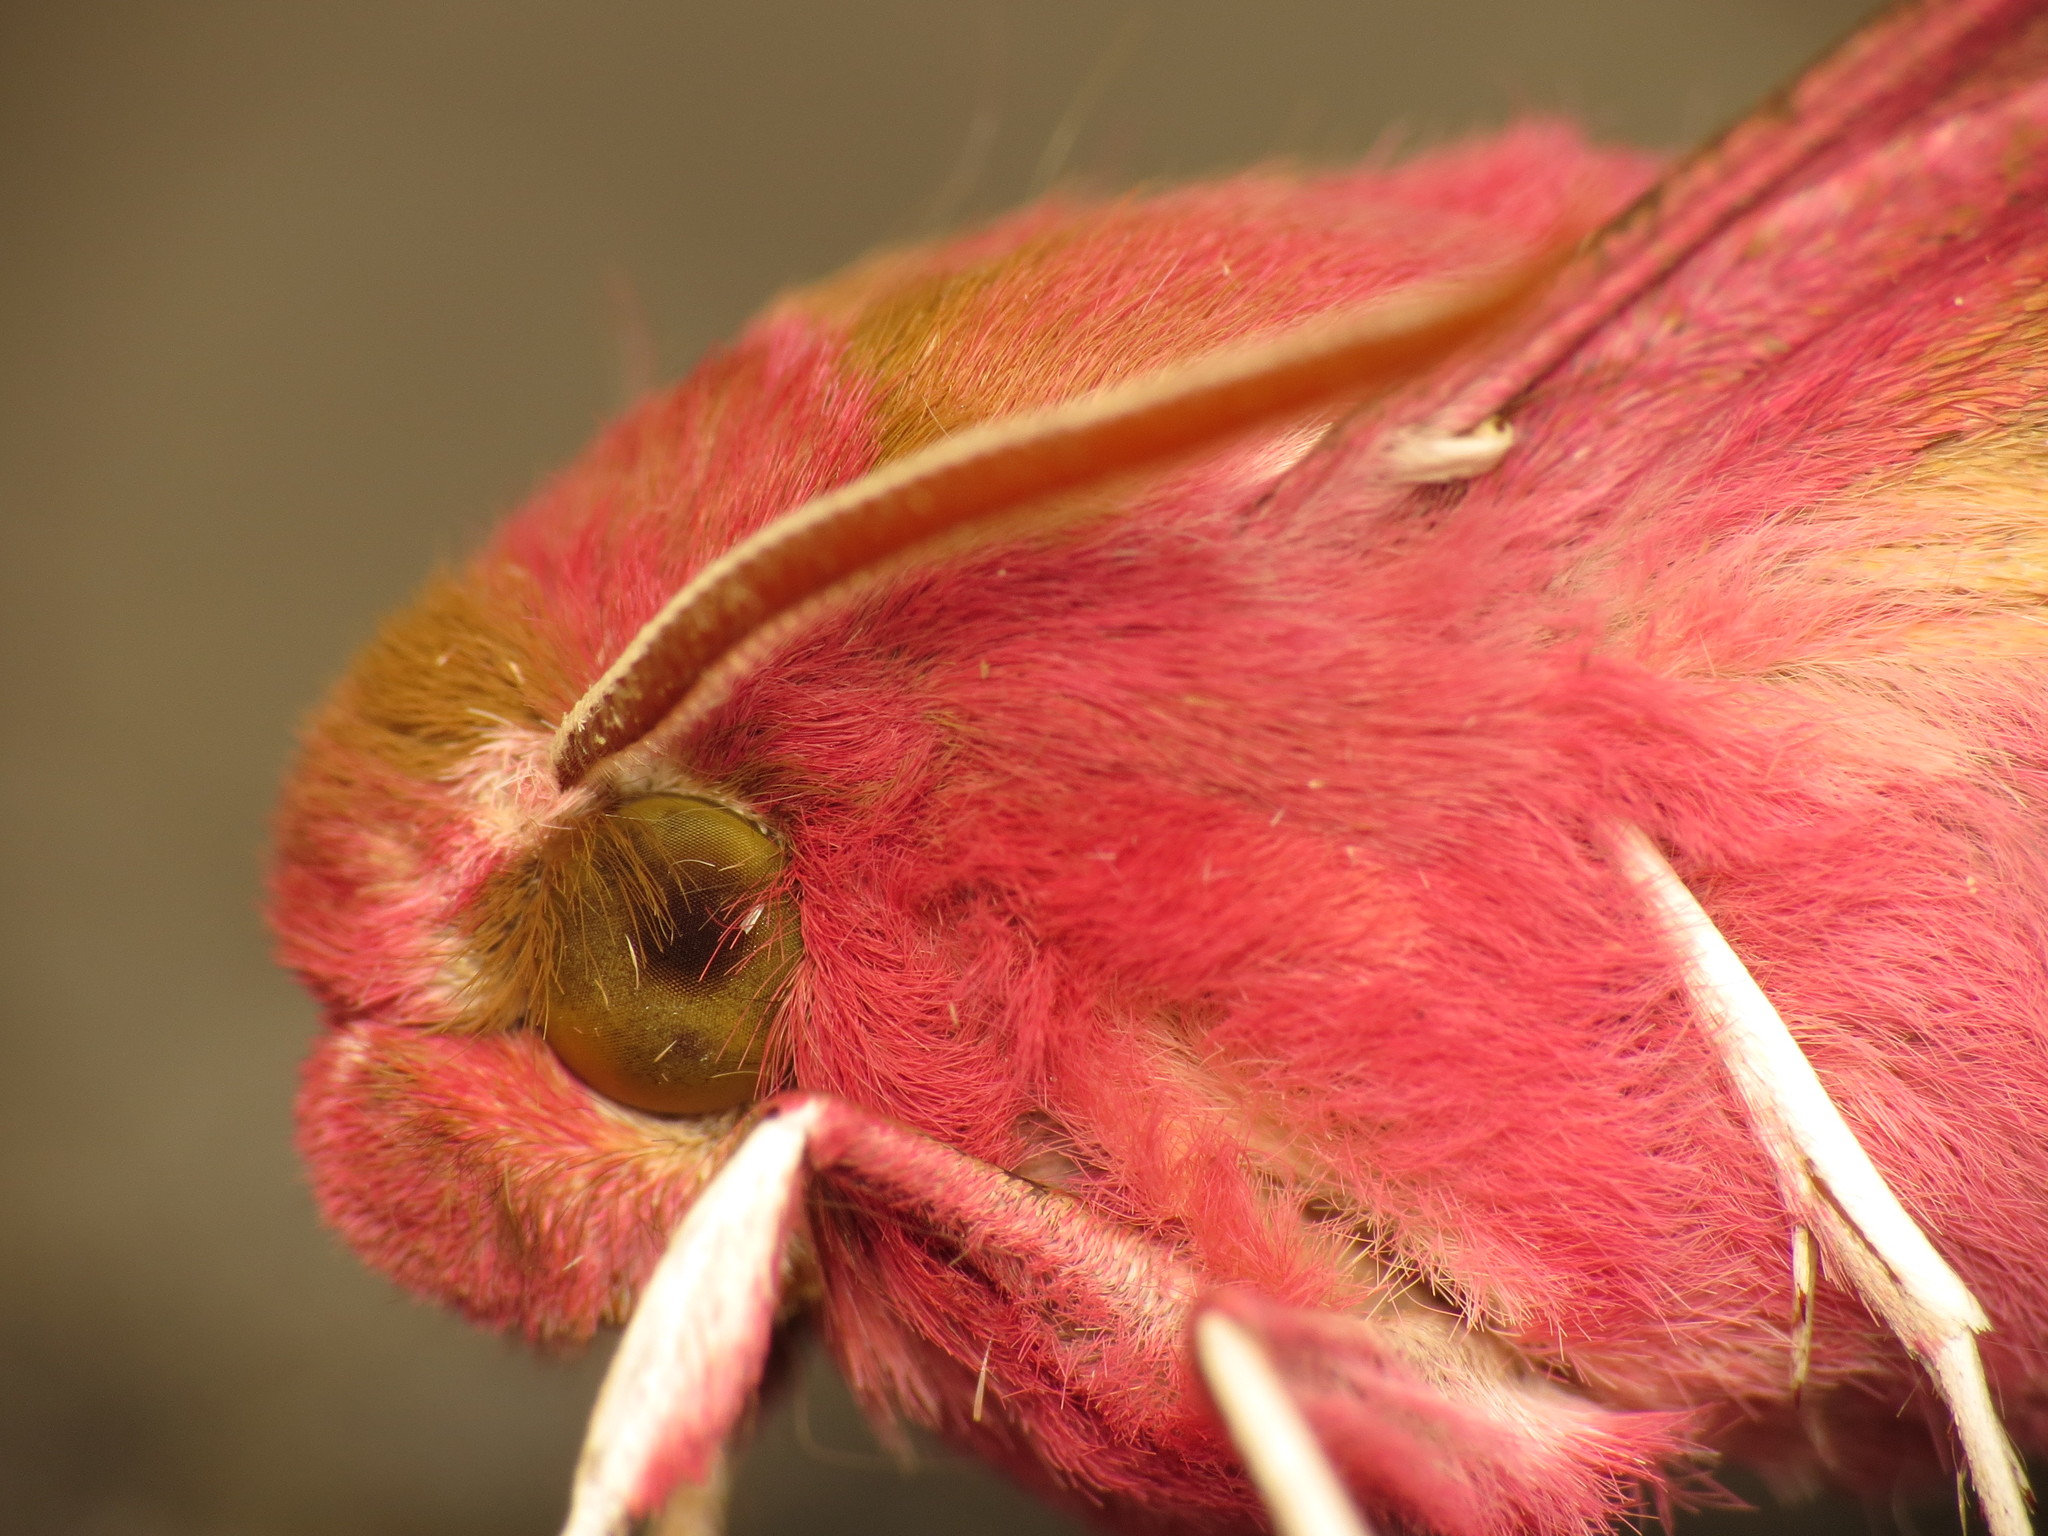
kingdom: Animalia
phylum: Arthropoda
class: Insecta
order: Lepidoptera
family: Sphingidae
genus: Deilephila
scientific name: Deilephila porcellus
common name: Small elephant hawk-moth
